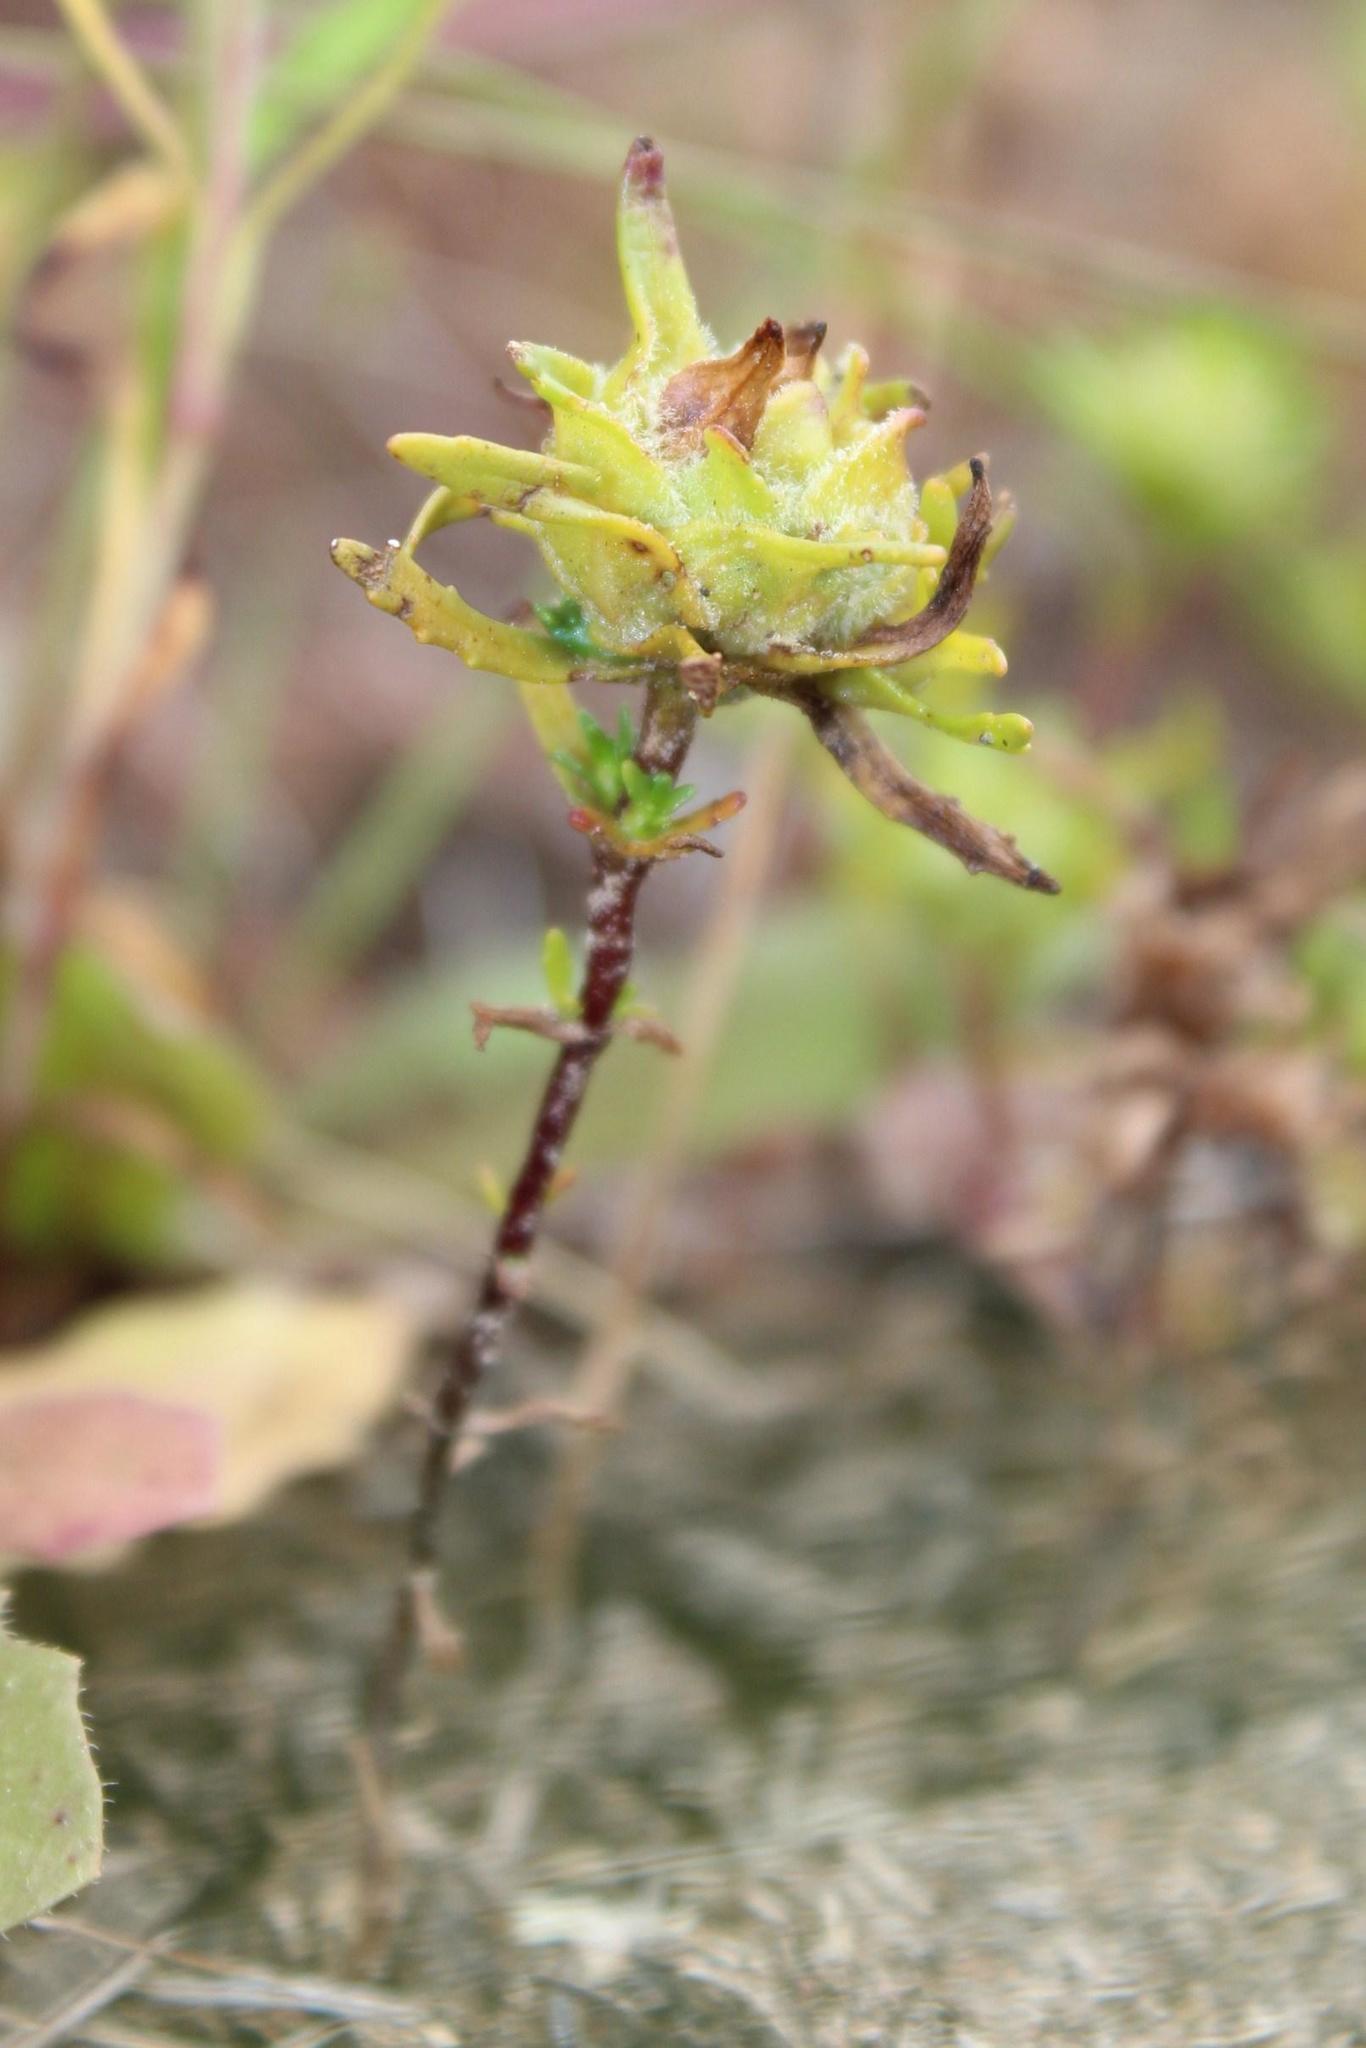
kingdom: Plantae
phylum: Tracheophyta
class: Magnoliopsida
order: Lamiales
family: Scrophulariaceae
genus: Dischisma
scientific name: Dischisma capitatum
